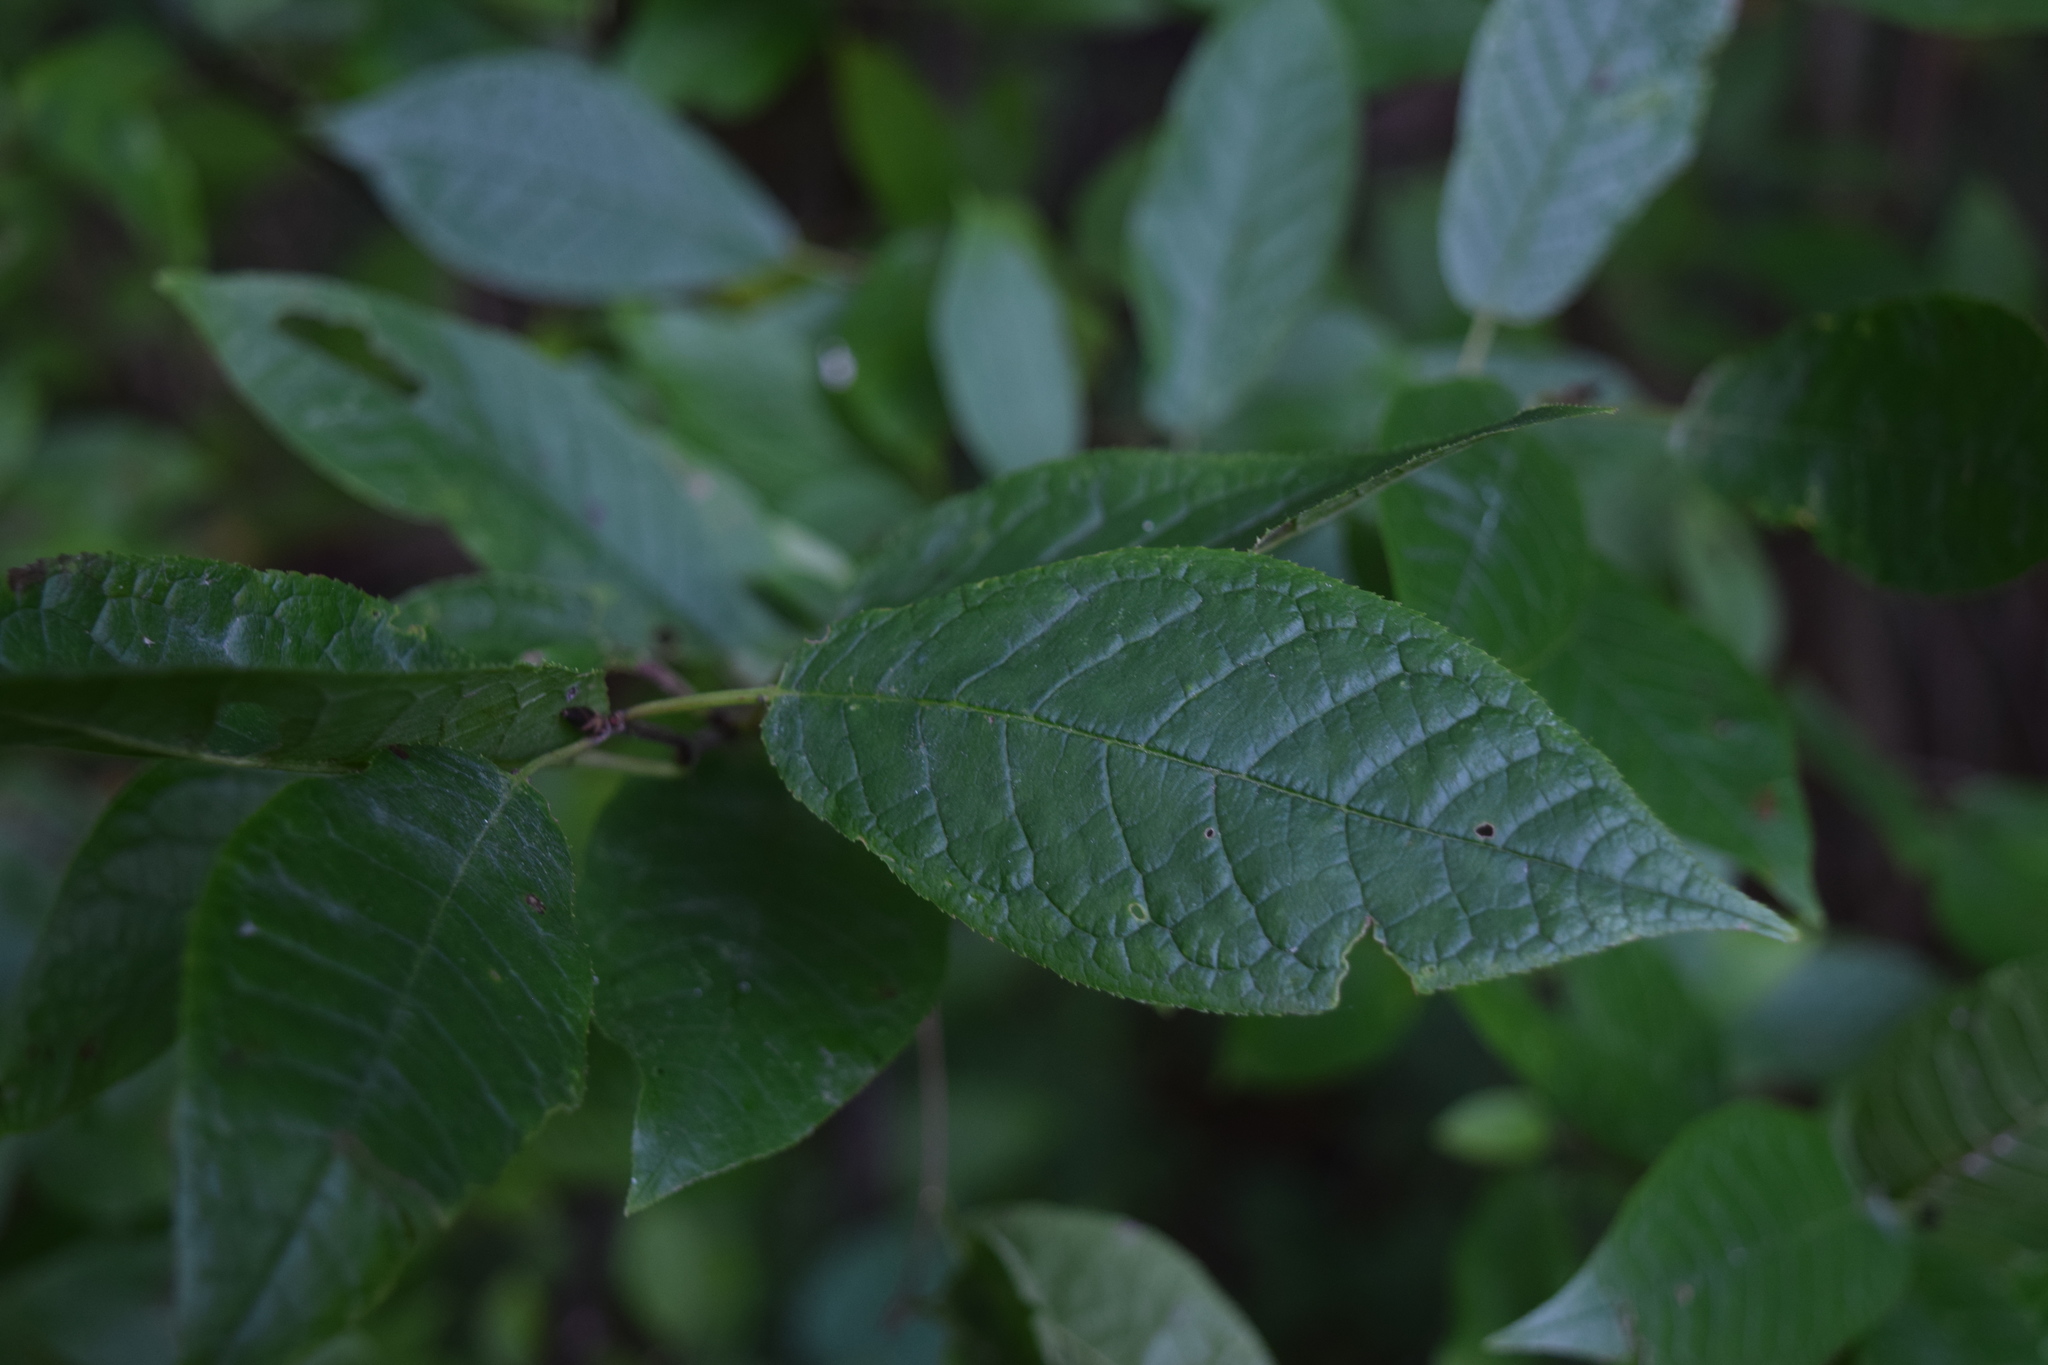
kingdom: Plantae
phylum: Tracheophyta
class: Magnoliopsida
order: Rosales
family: Rosaceae
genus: Prunus
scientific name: Prunus padus
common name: Bird cherry
